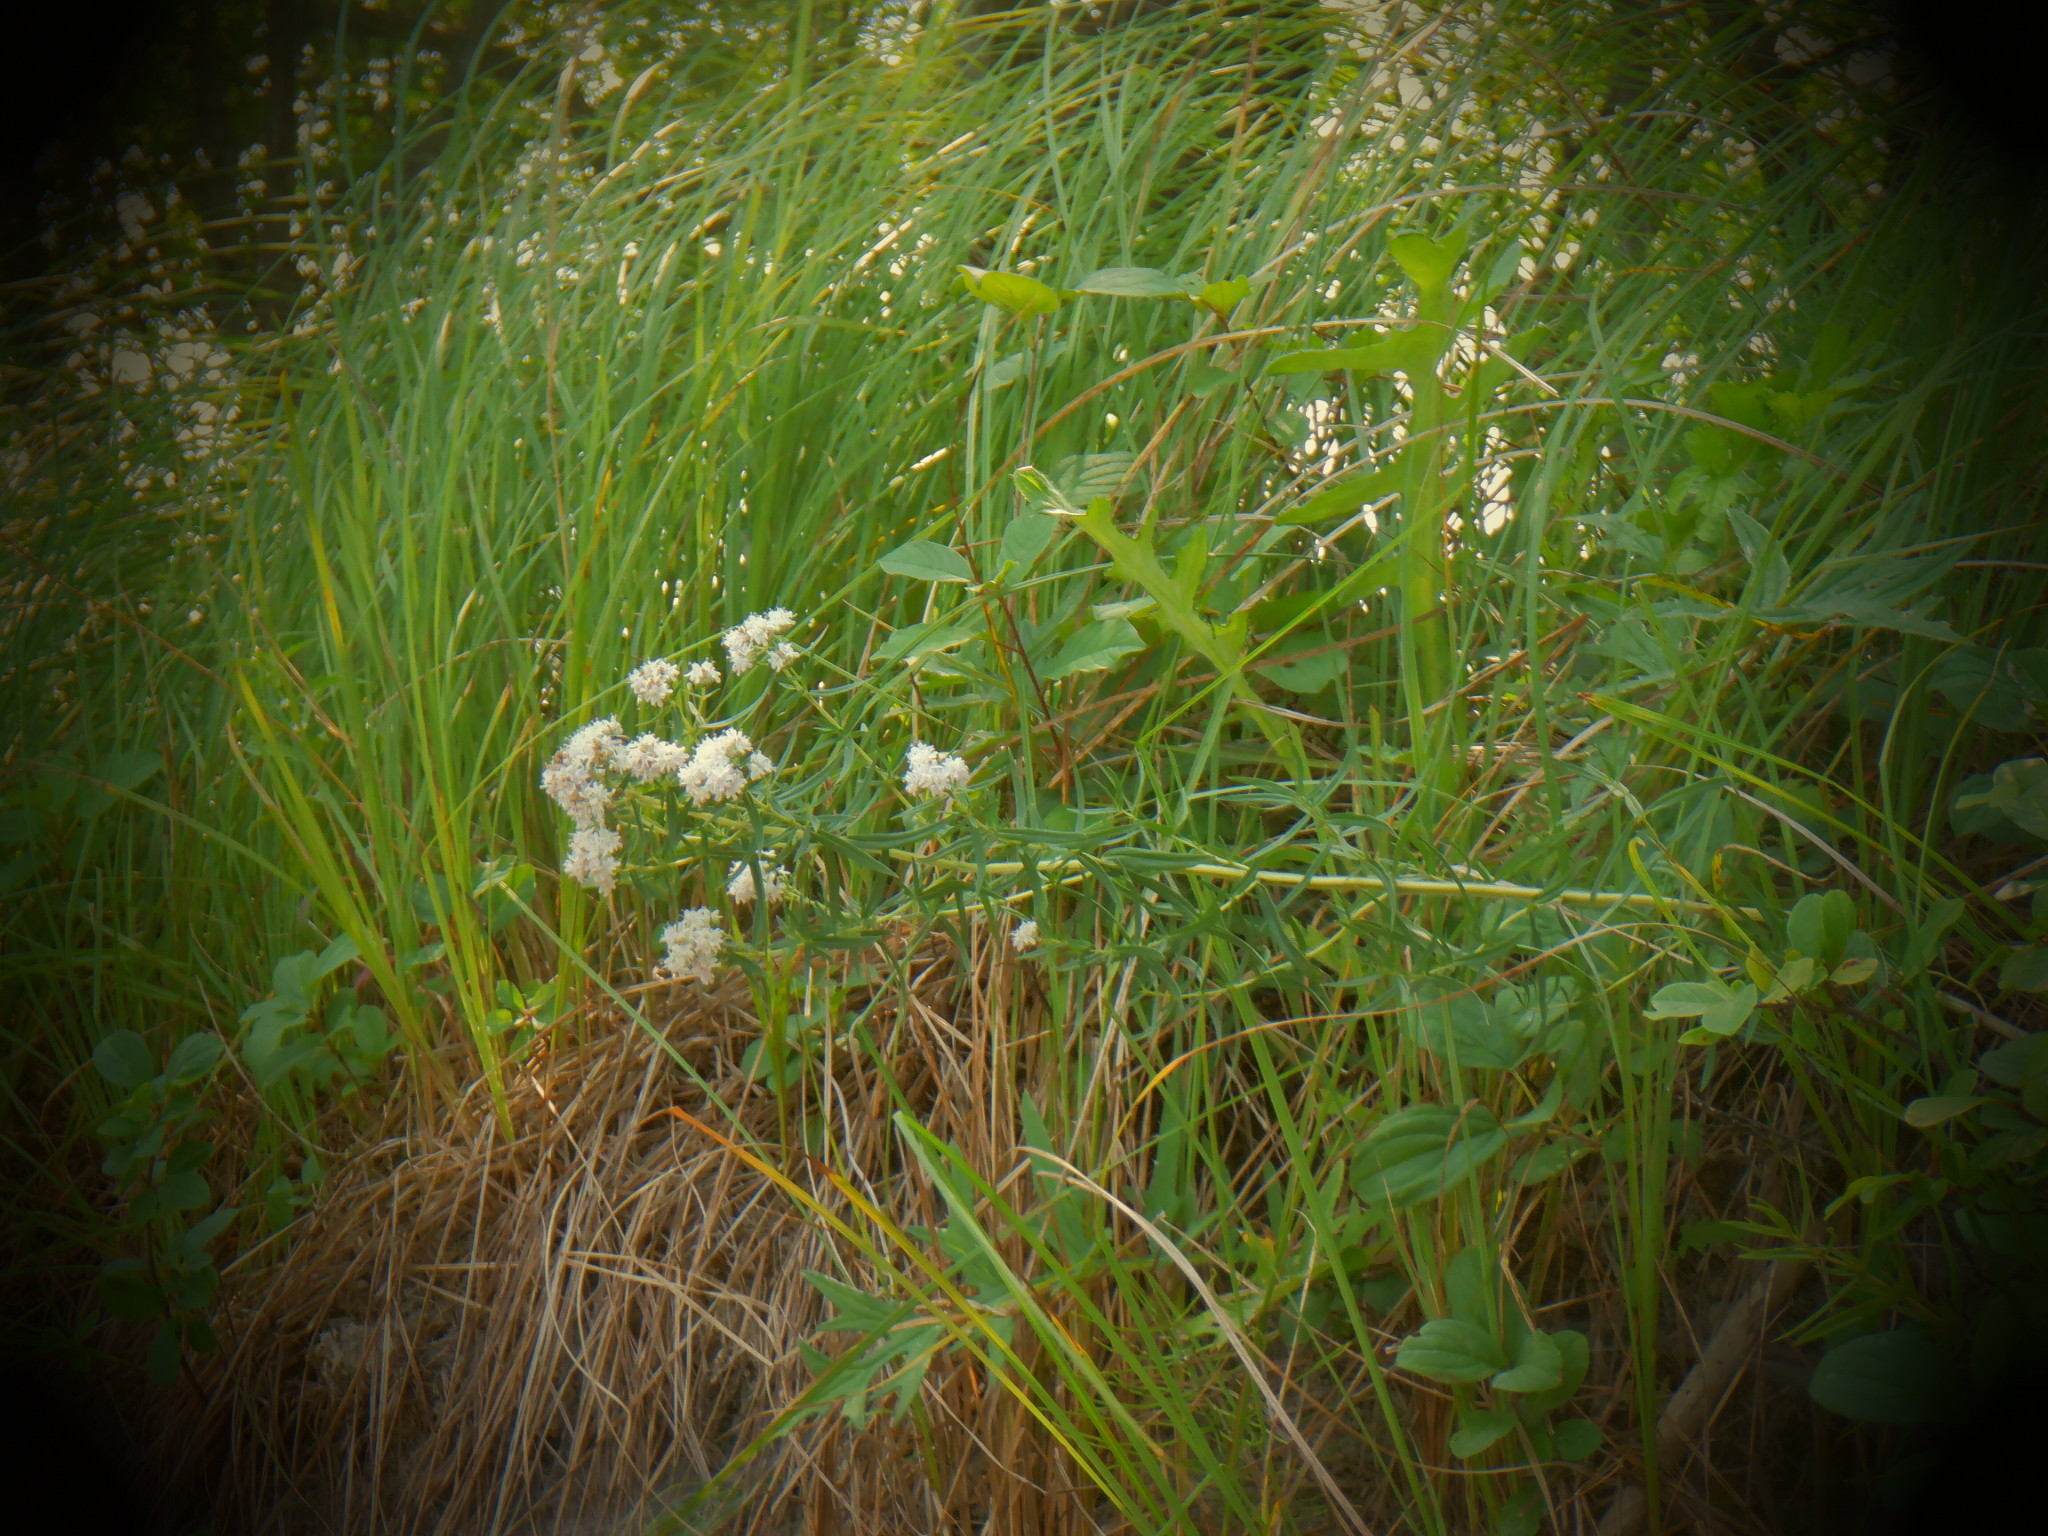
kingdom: Plantae
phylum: Tracheophyta
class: Magnoliopsida
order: Lamiales
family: Lamiaceae
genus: Pycnanthemum
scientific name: Pycnanthemum virginianum
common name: Virginia mountain-mint
